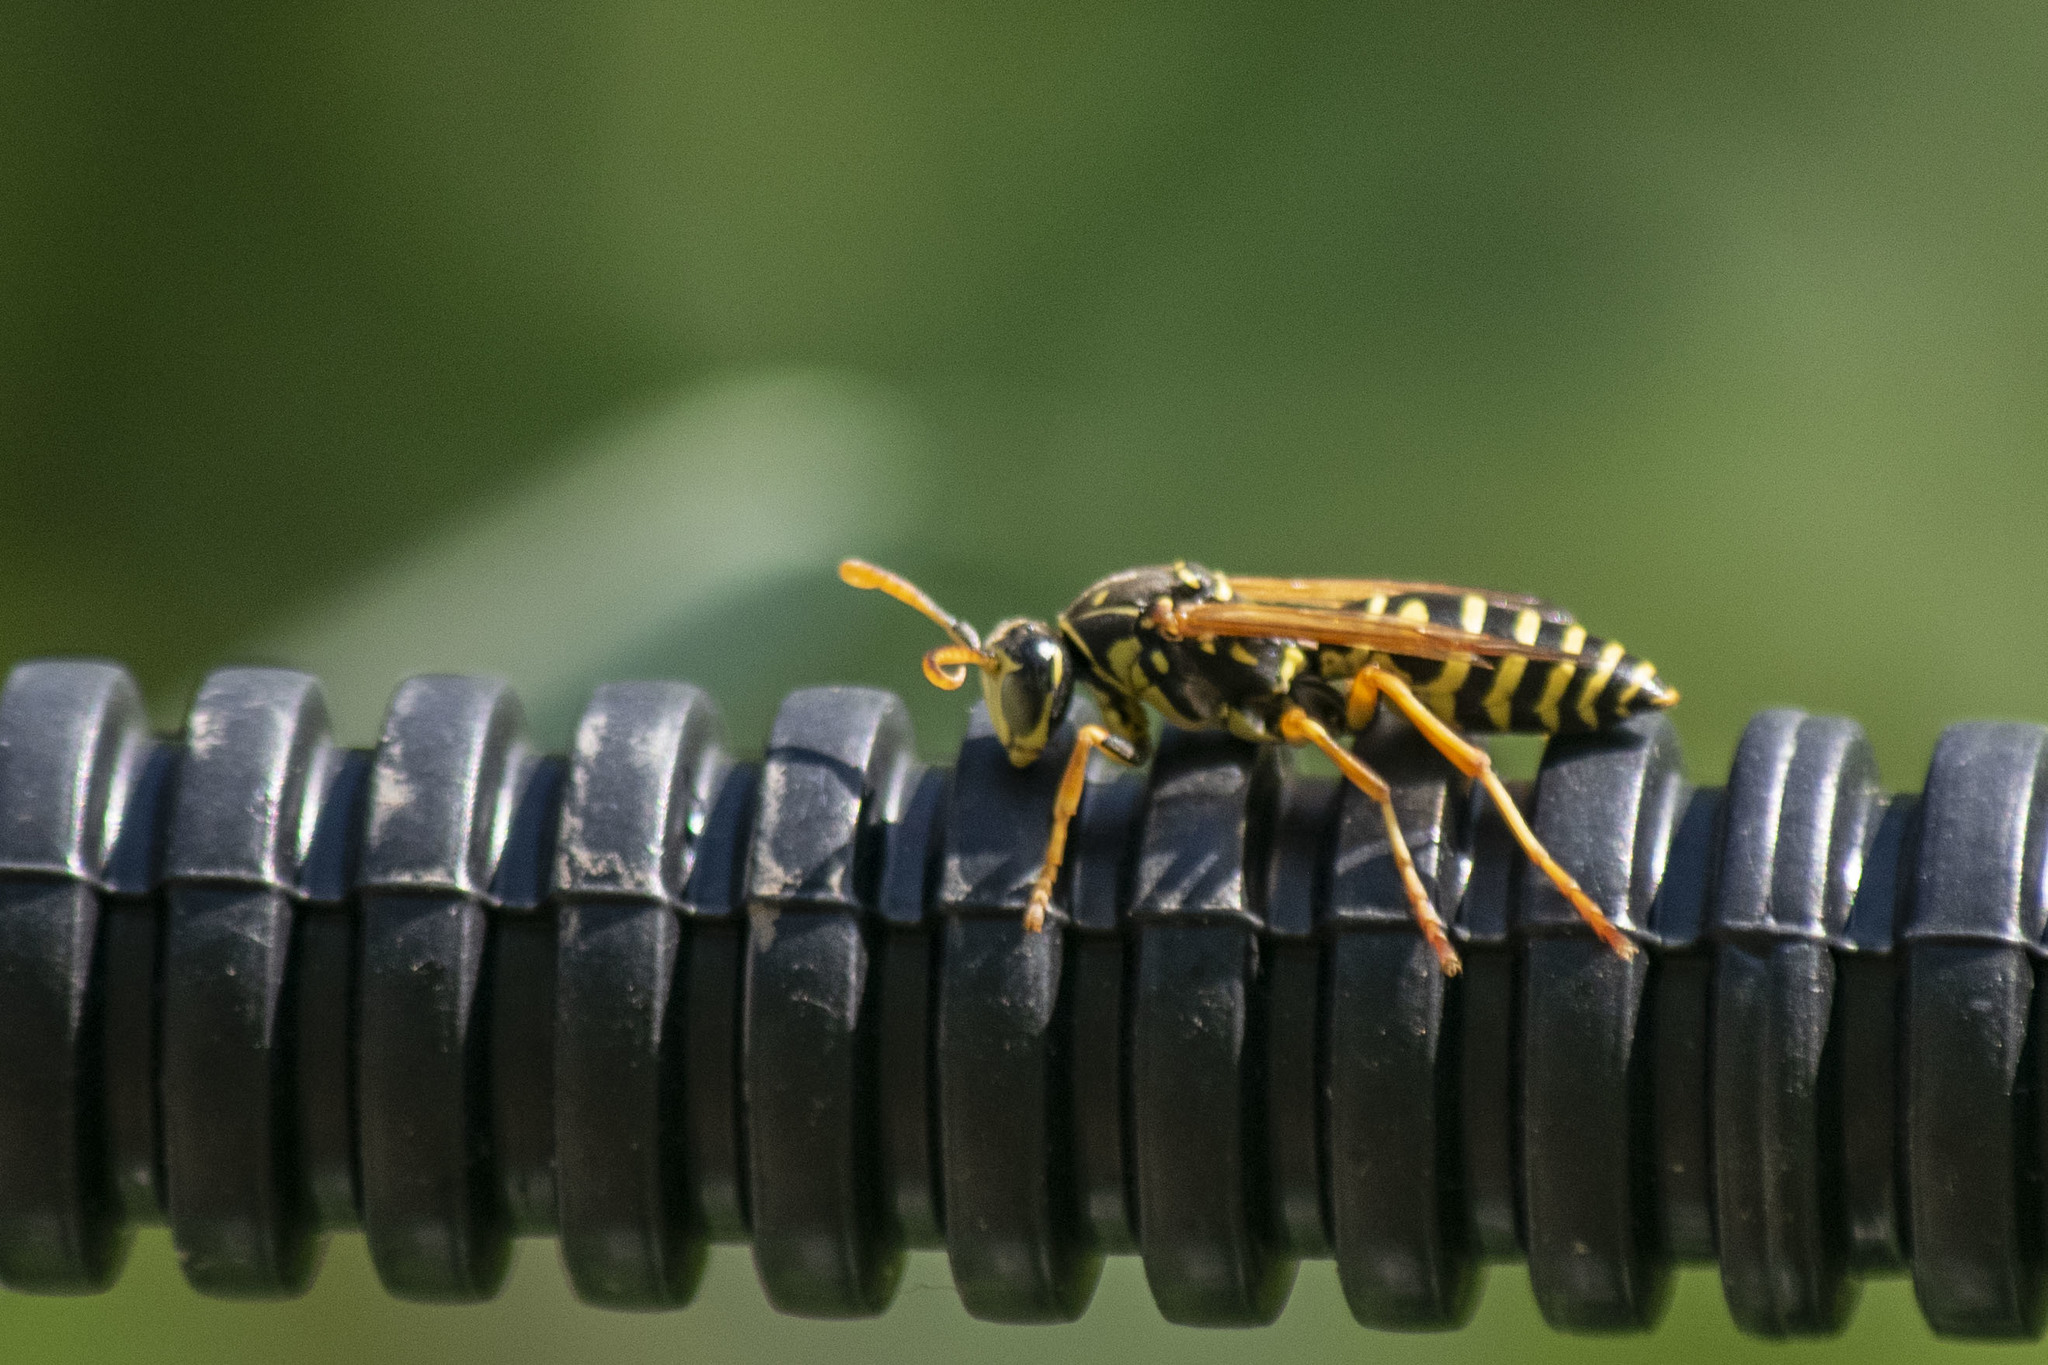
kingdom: Animalia
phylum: Arthropoda
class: Insecta
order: Hymenoptera
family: Eumenidae
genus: Polistes
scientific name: Polistes nimpha
